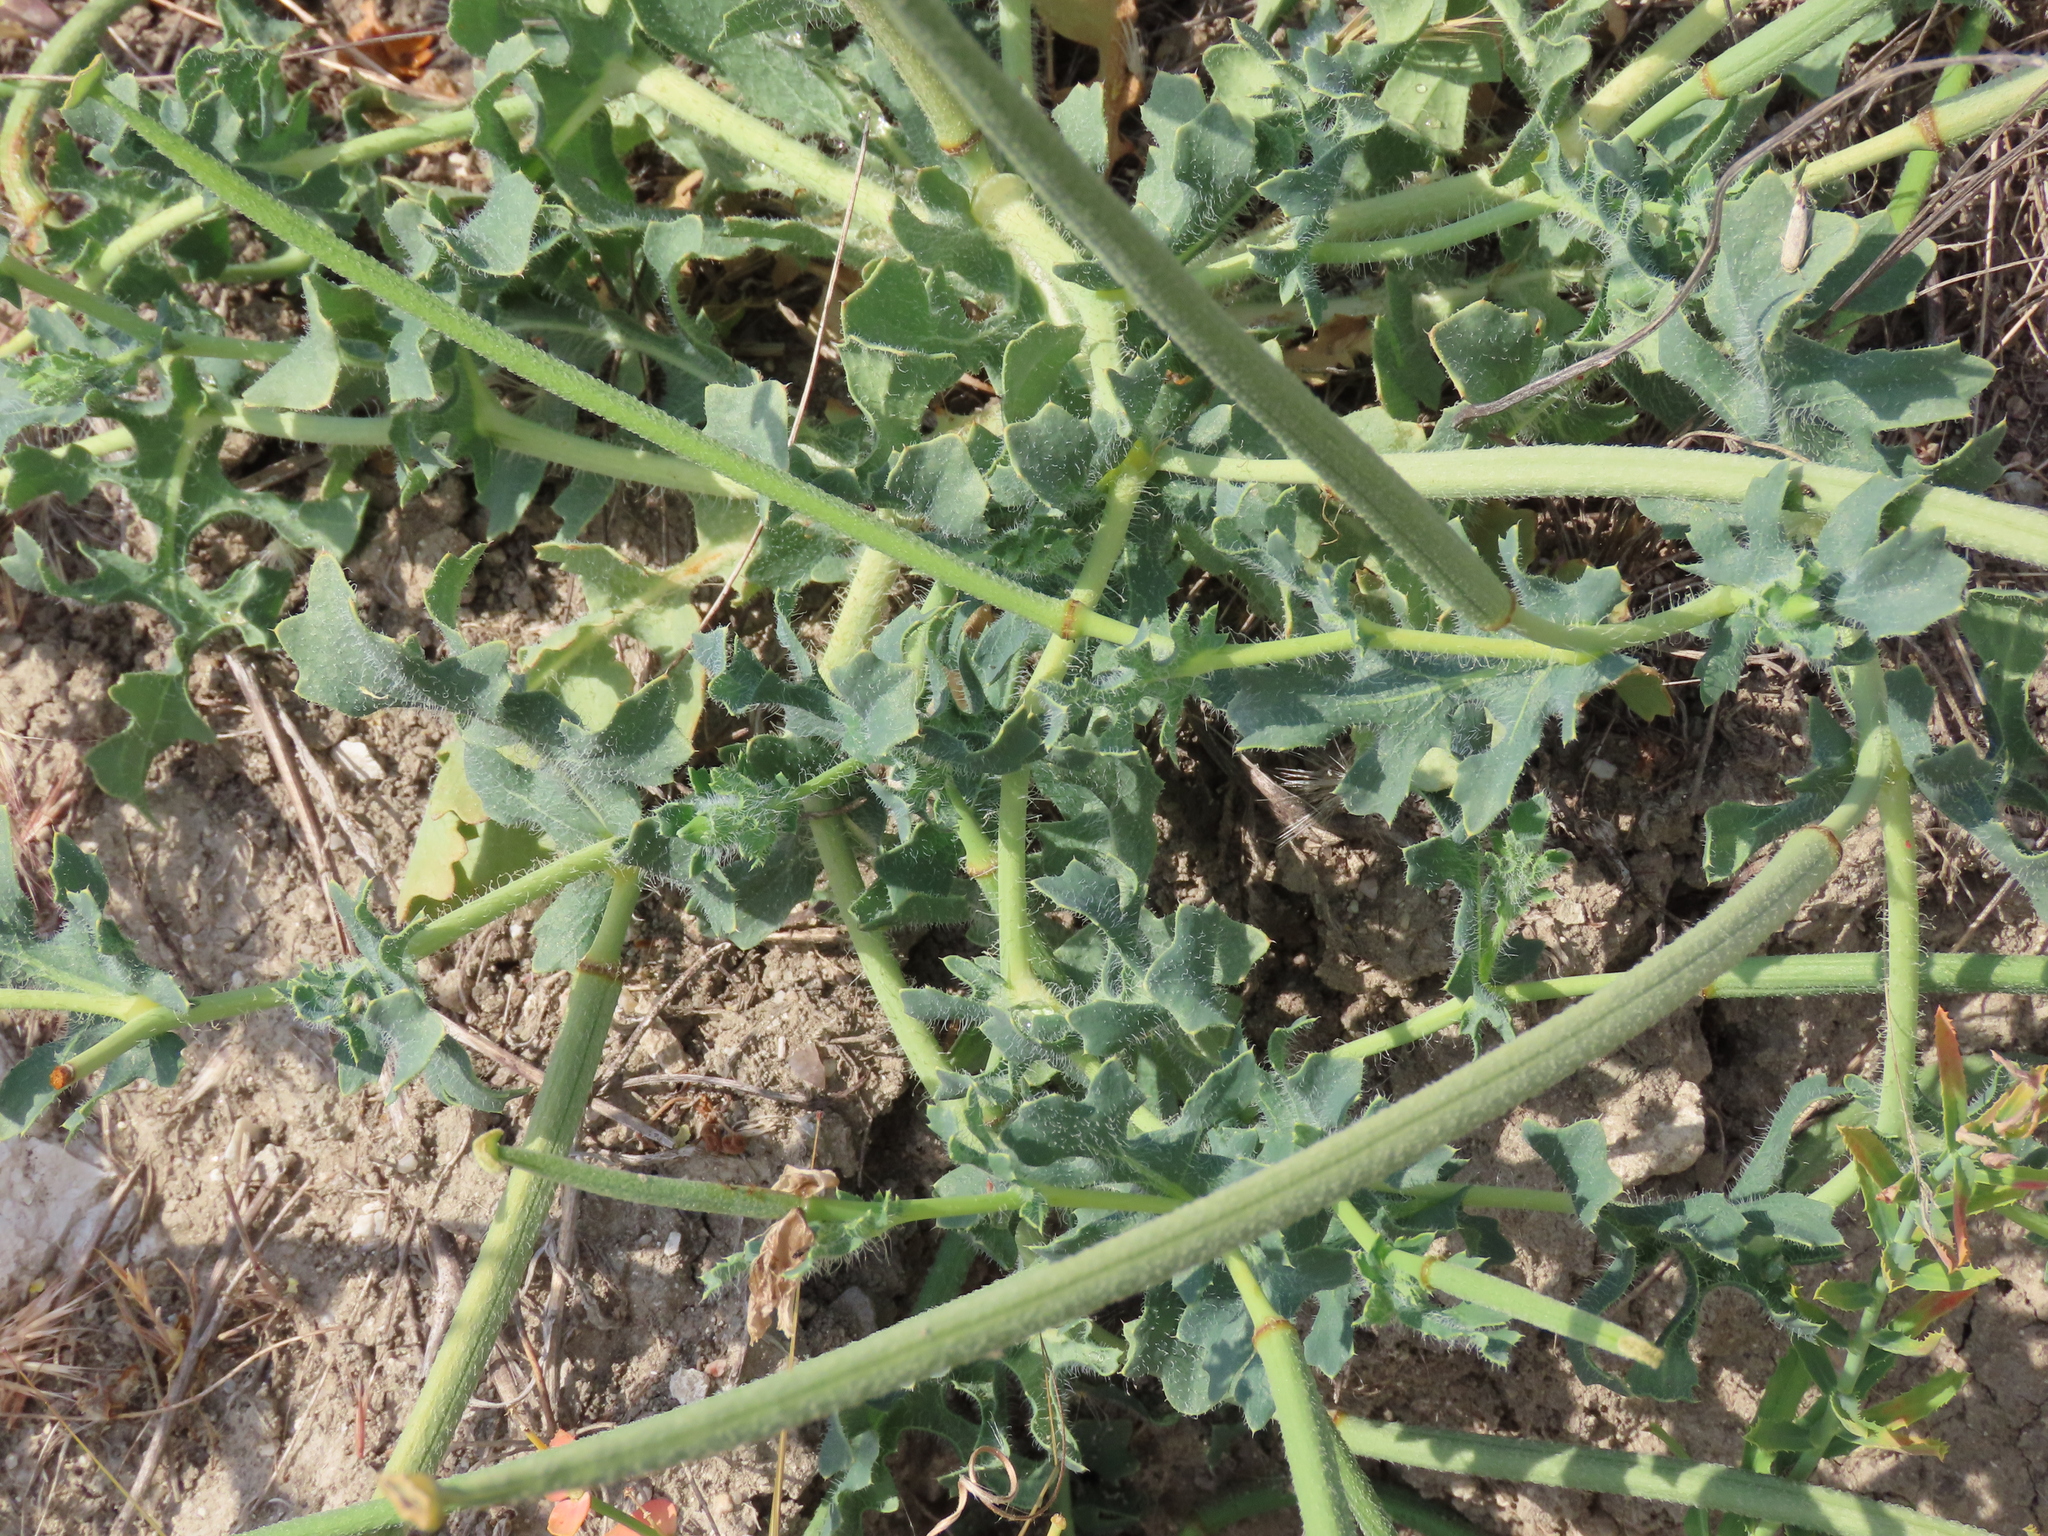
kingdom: Plantae
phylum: Tracheophyta
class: Magnoliopsida
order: Ranunculales
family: Papaveraceae
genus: Glaucium
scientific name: Glaucium corniculatum
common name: Red horned-poppy
